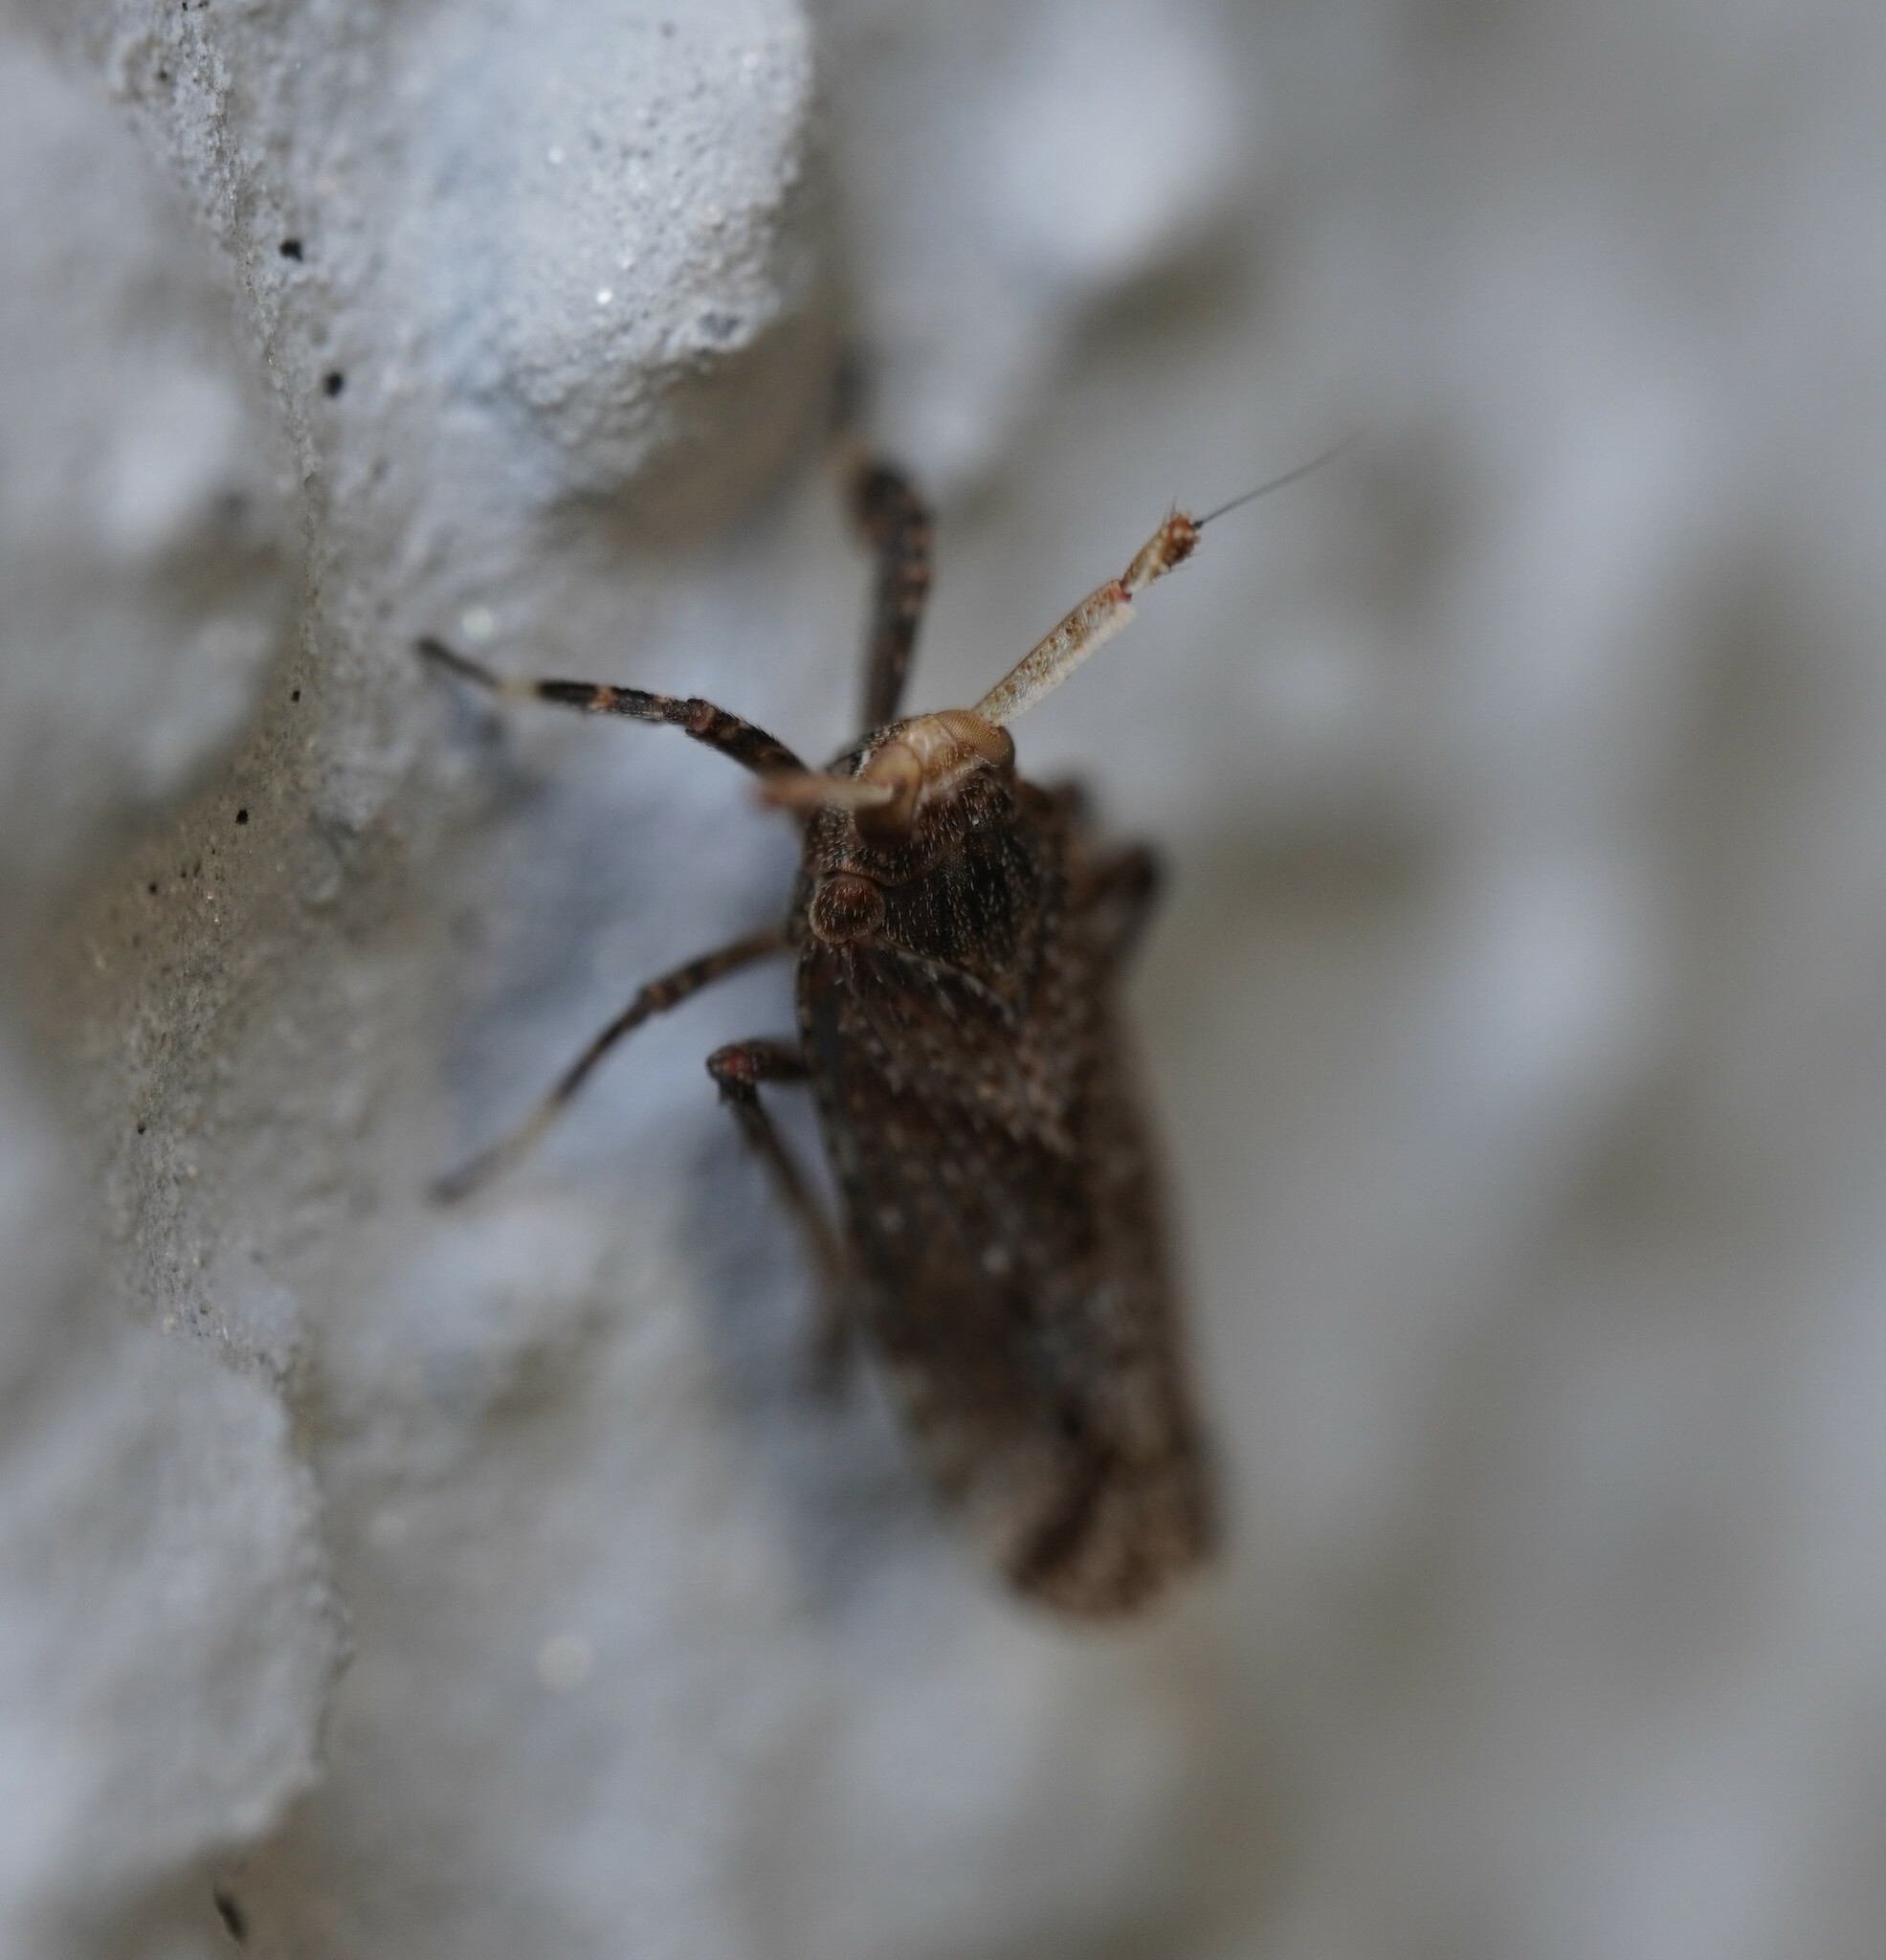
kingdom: Animalia
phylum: Arthropoda
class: Insecta
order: Hemiptera
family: Delphacidae
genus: Asiraca
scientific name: Asiraca clavicornis
